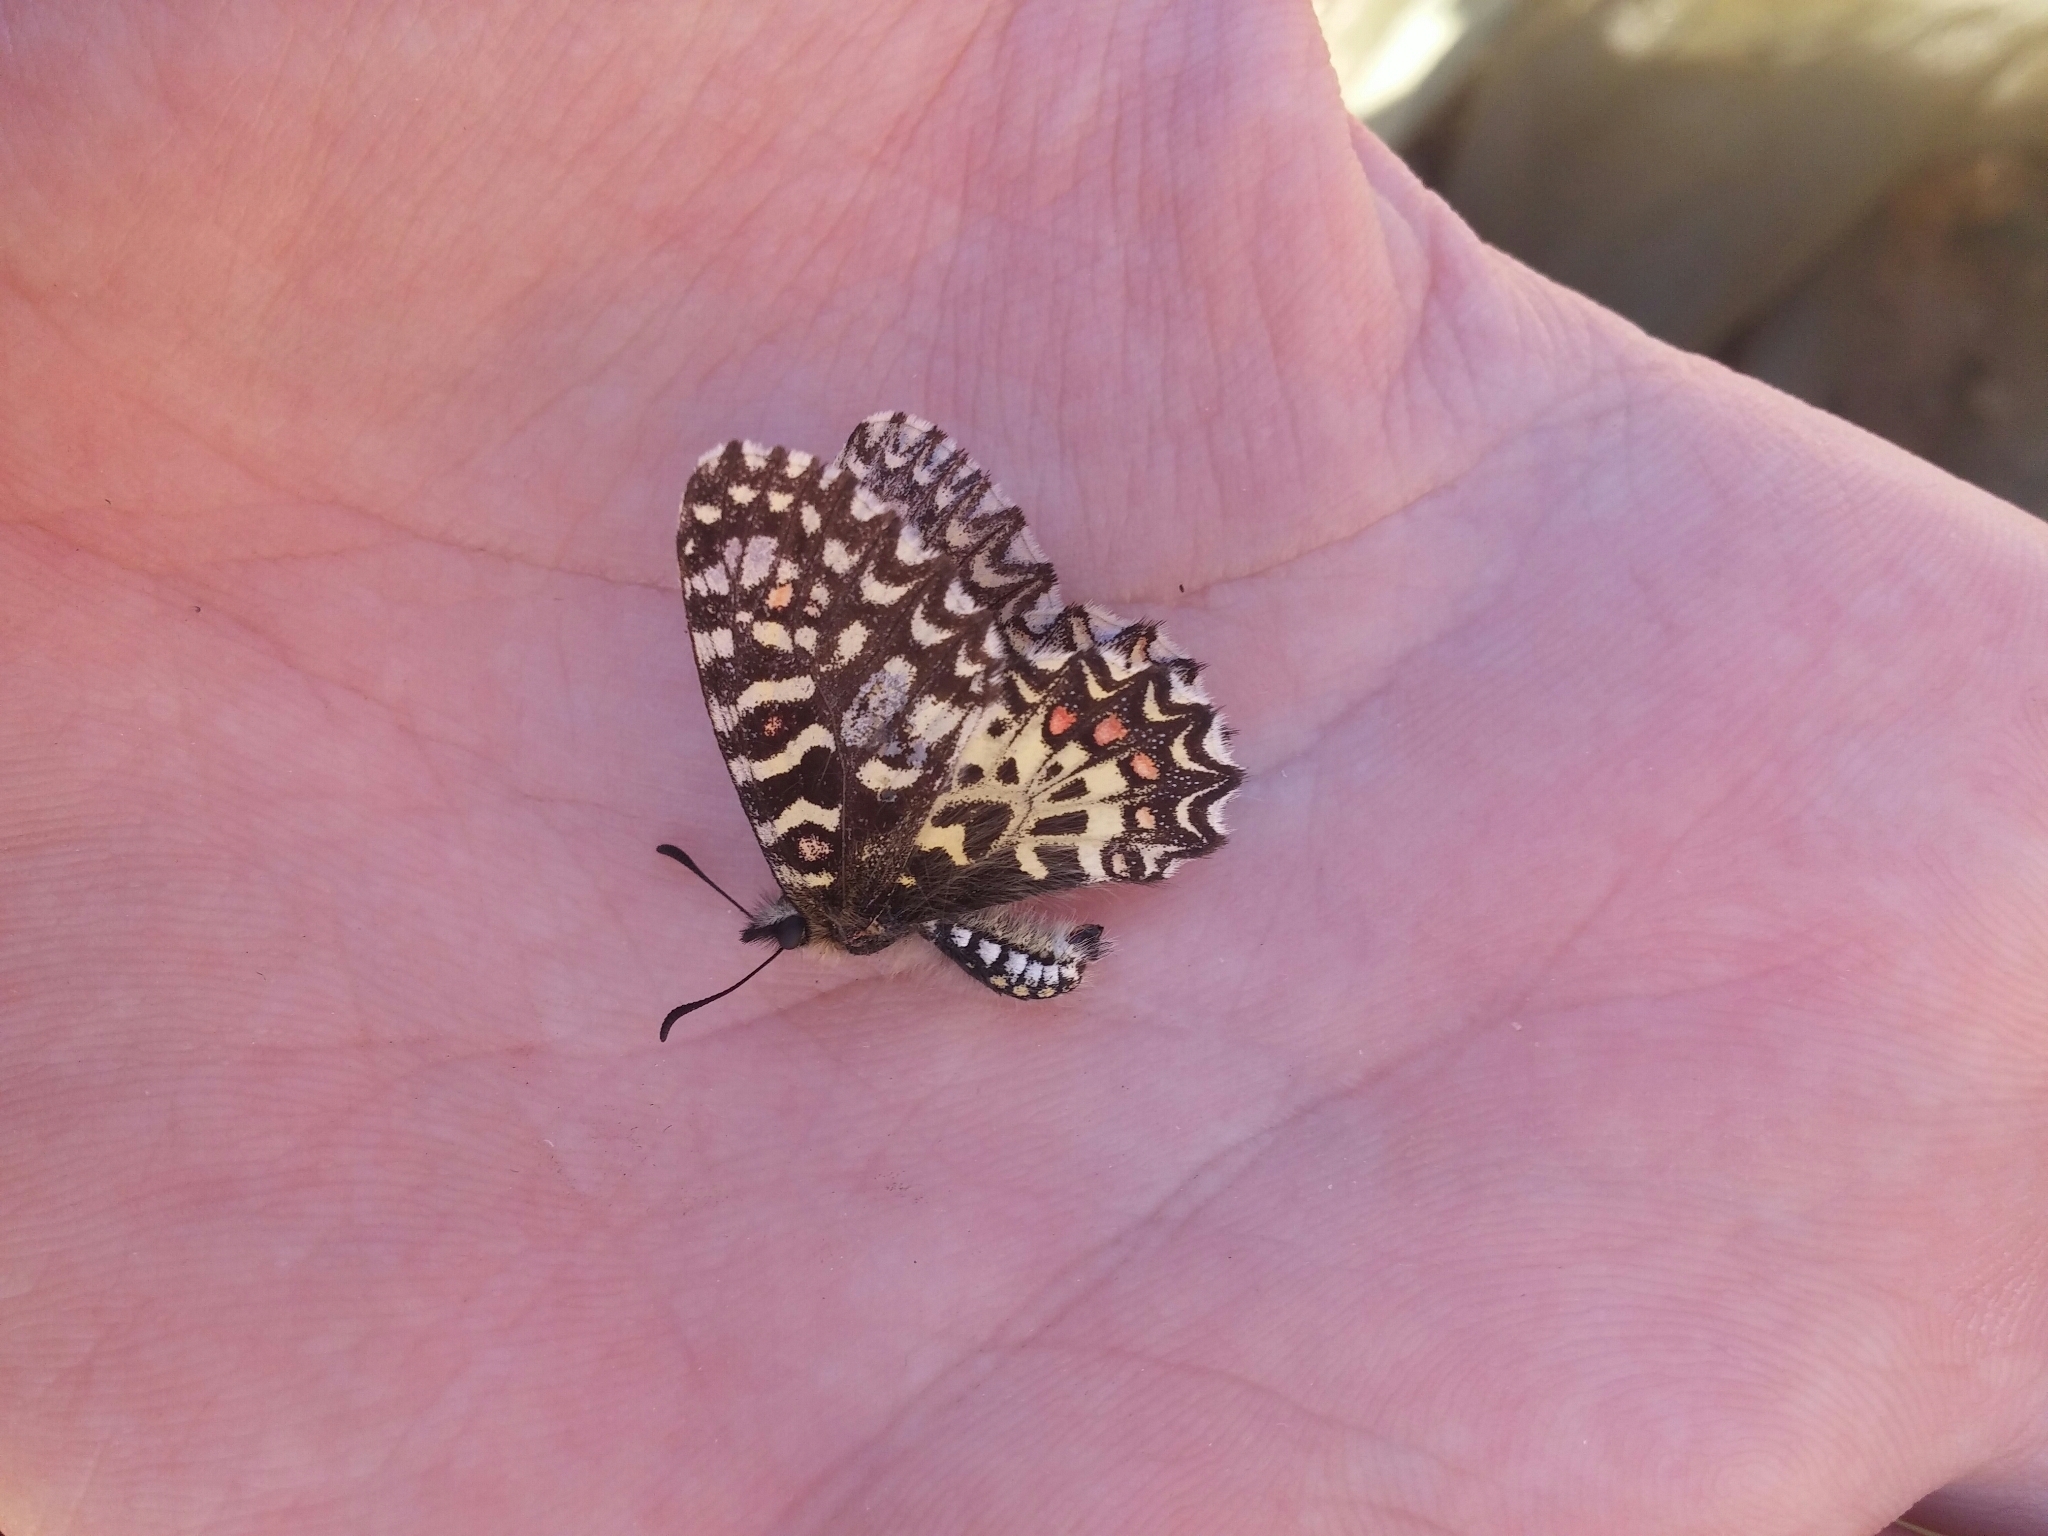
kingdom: Animalia
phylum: Arthropoda
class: Insecta
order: Lepidoptera
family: Papilionidae
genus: Zerynthia
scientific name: Zerynthia rumina
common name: Spanish festoon
